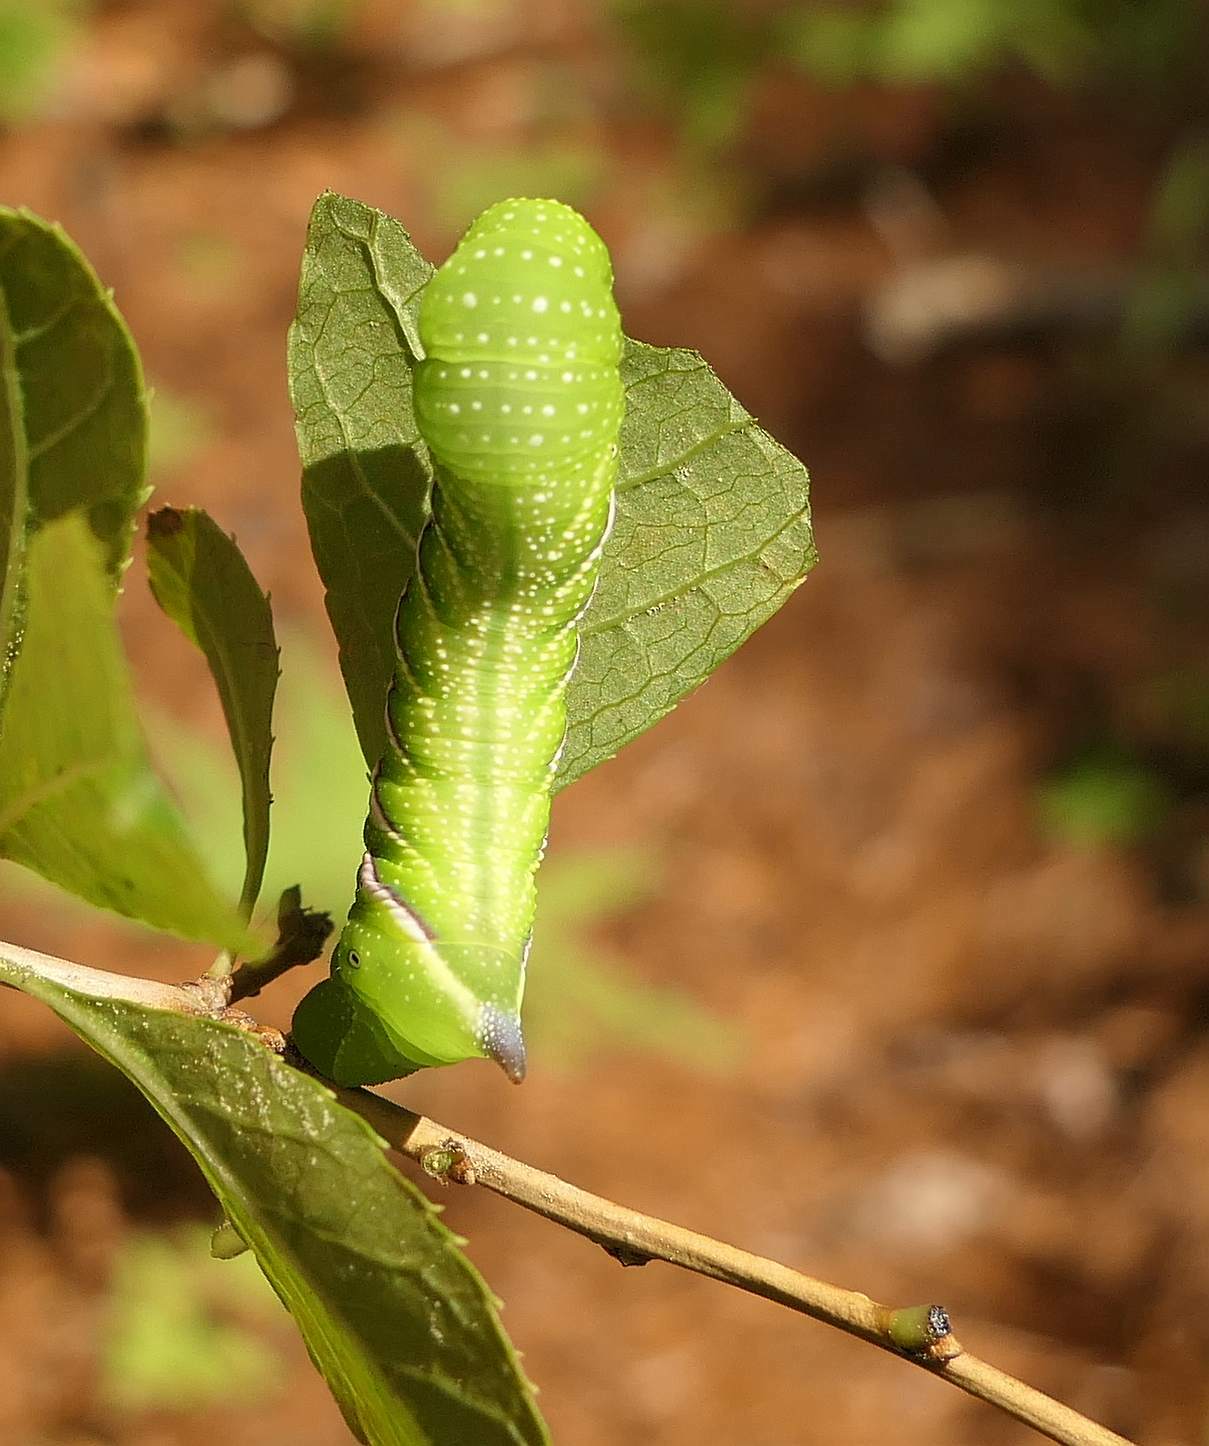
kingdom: Animalia
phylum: Arthropoda
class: Insecta
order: Lepidoptera
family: Sphingidae
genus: Dolba
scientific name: Dolba hyloeus
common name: Pawpaw sphinx
